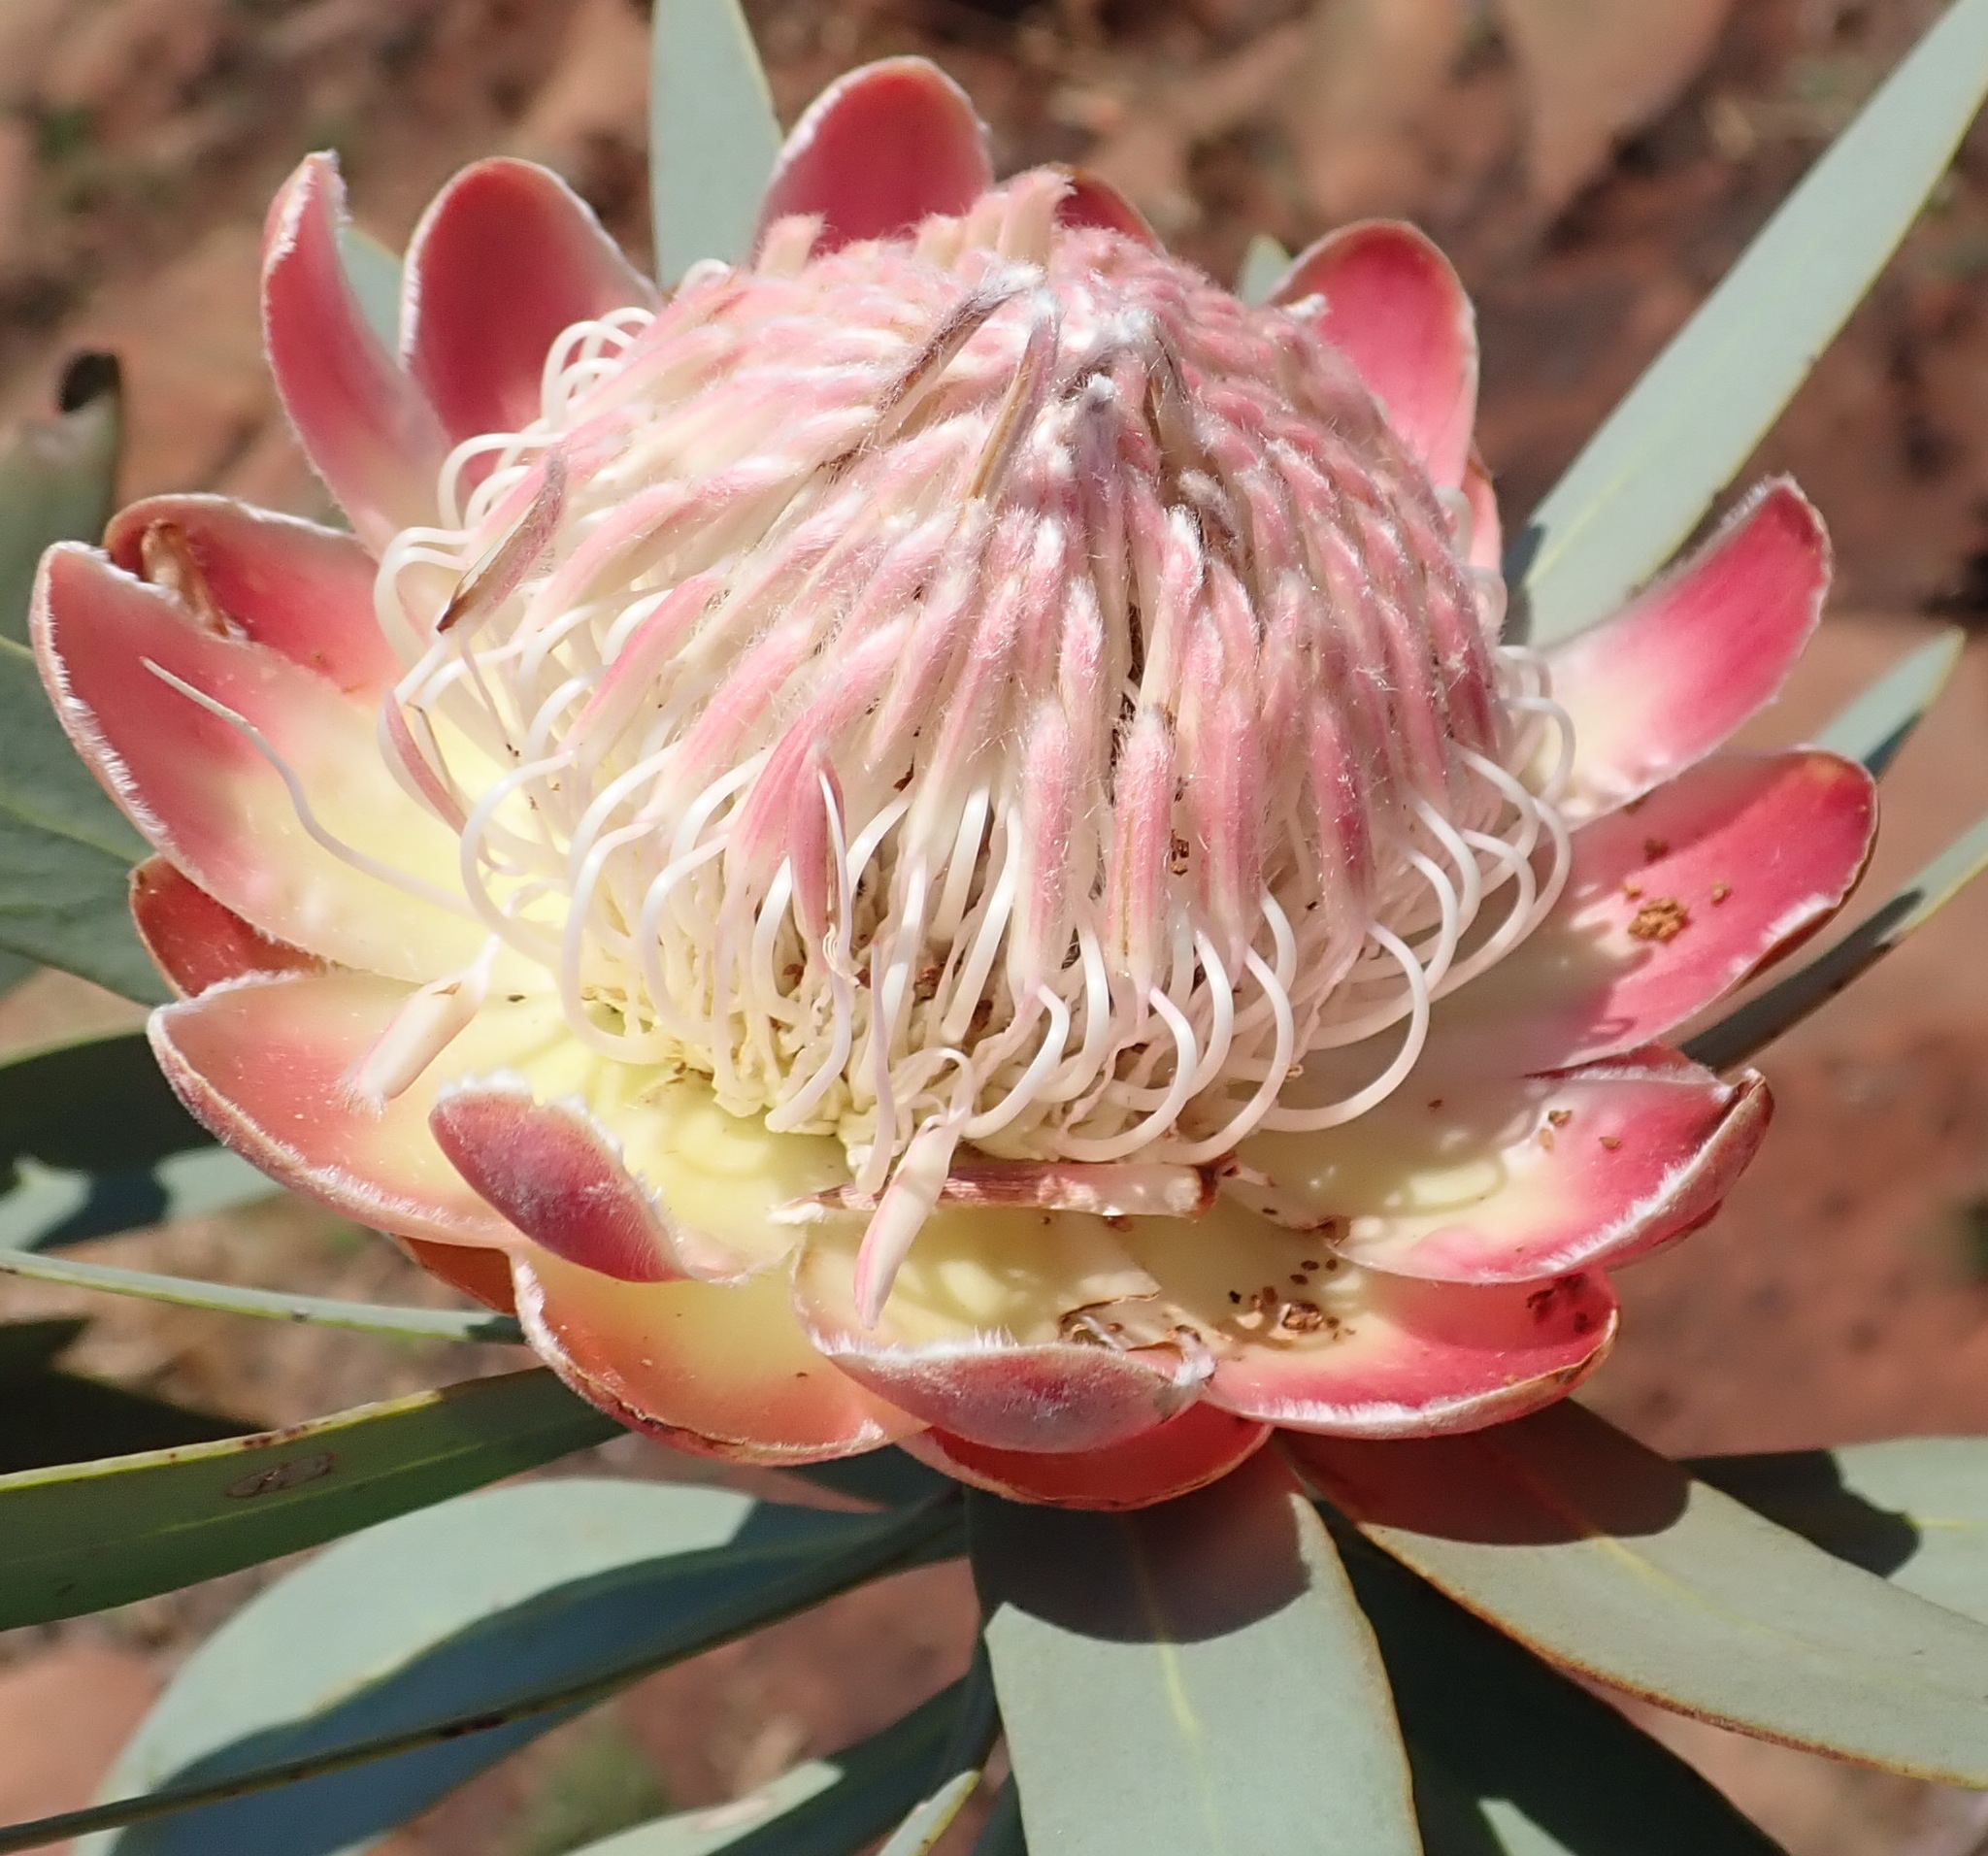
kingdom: Plantae
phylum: Tracheophyta
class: Magnoliopsida
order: Proteales
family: Proteaceae
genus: Protea
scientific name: Protea caffra
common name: Common sugarbush
